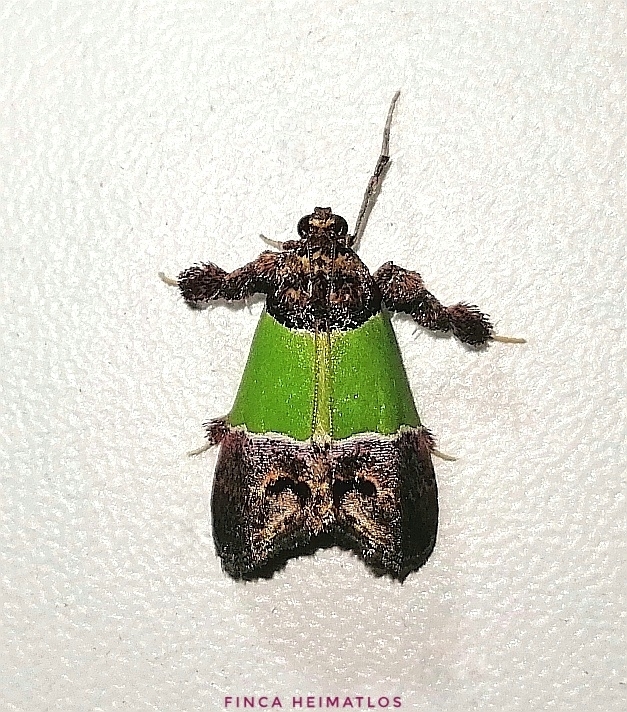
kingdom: Animalia
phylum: Arthropoda
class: Insecta
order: Lepidoptera
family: Pyralidae
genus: Epidelia
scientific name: Epidelia damia
